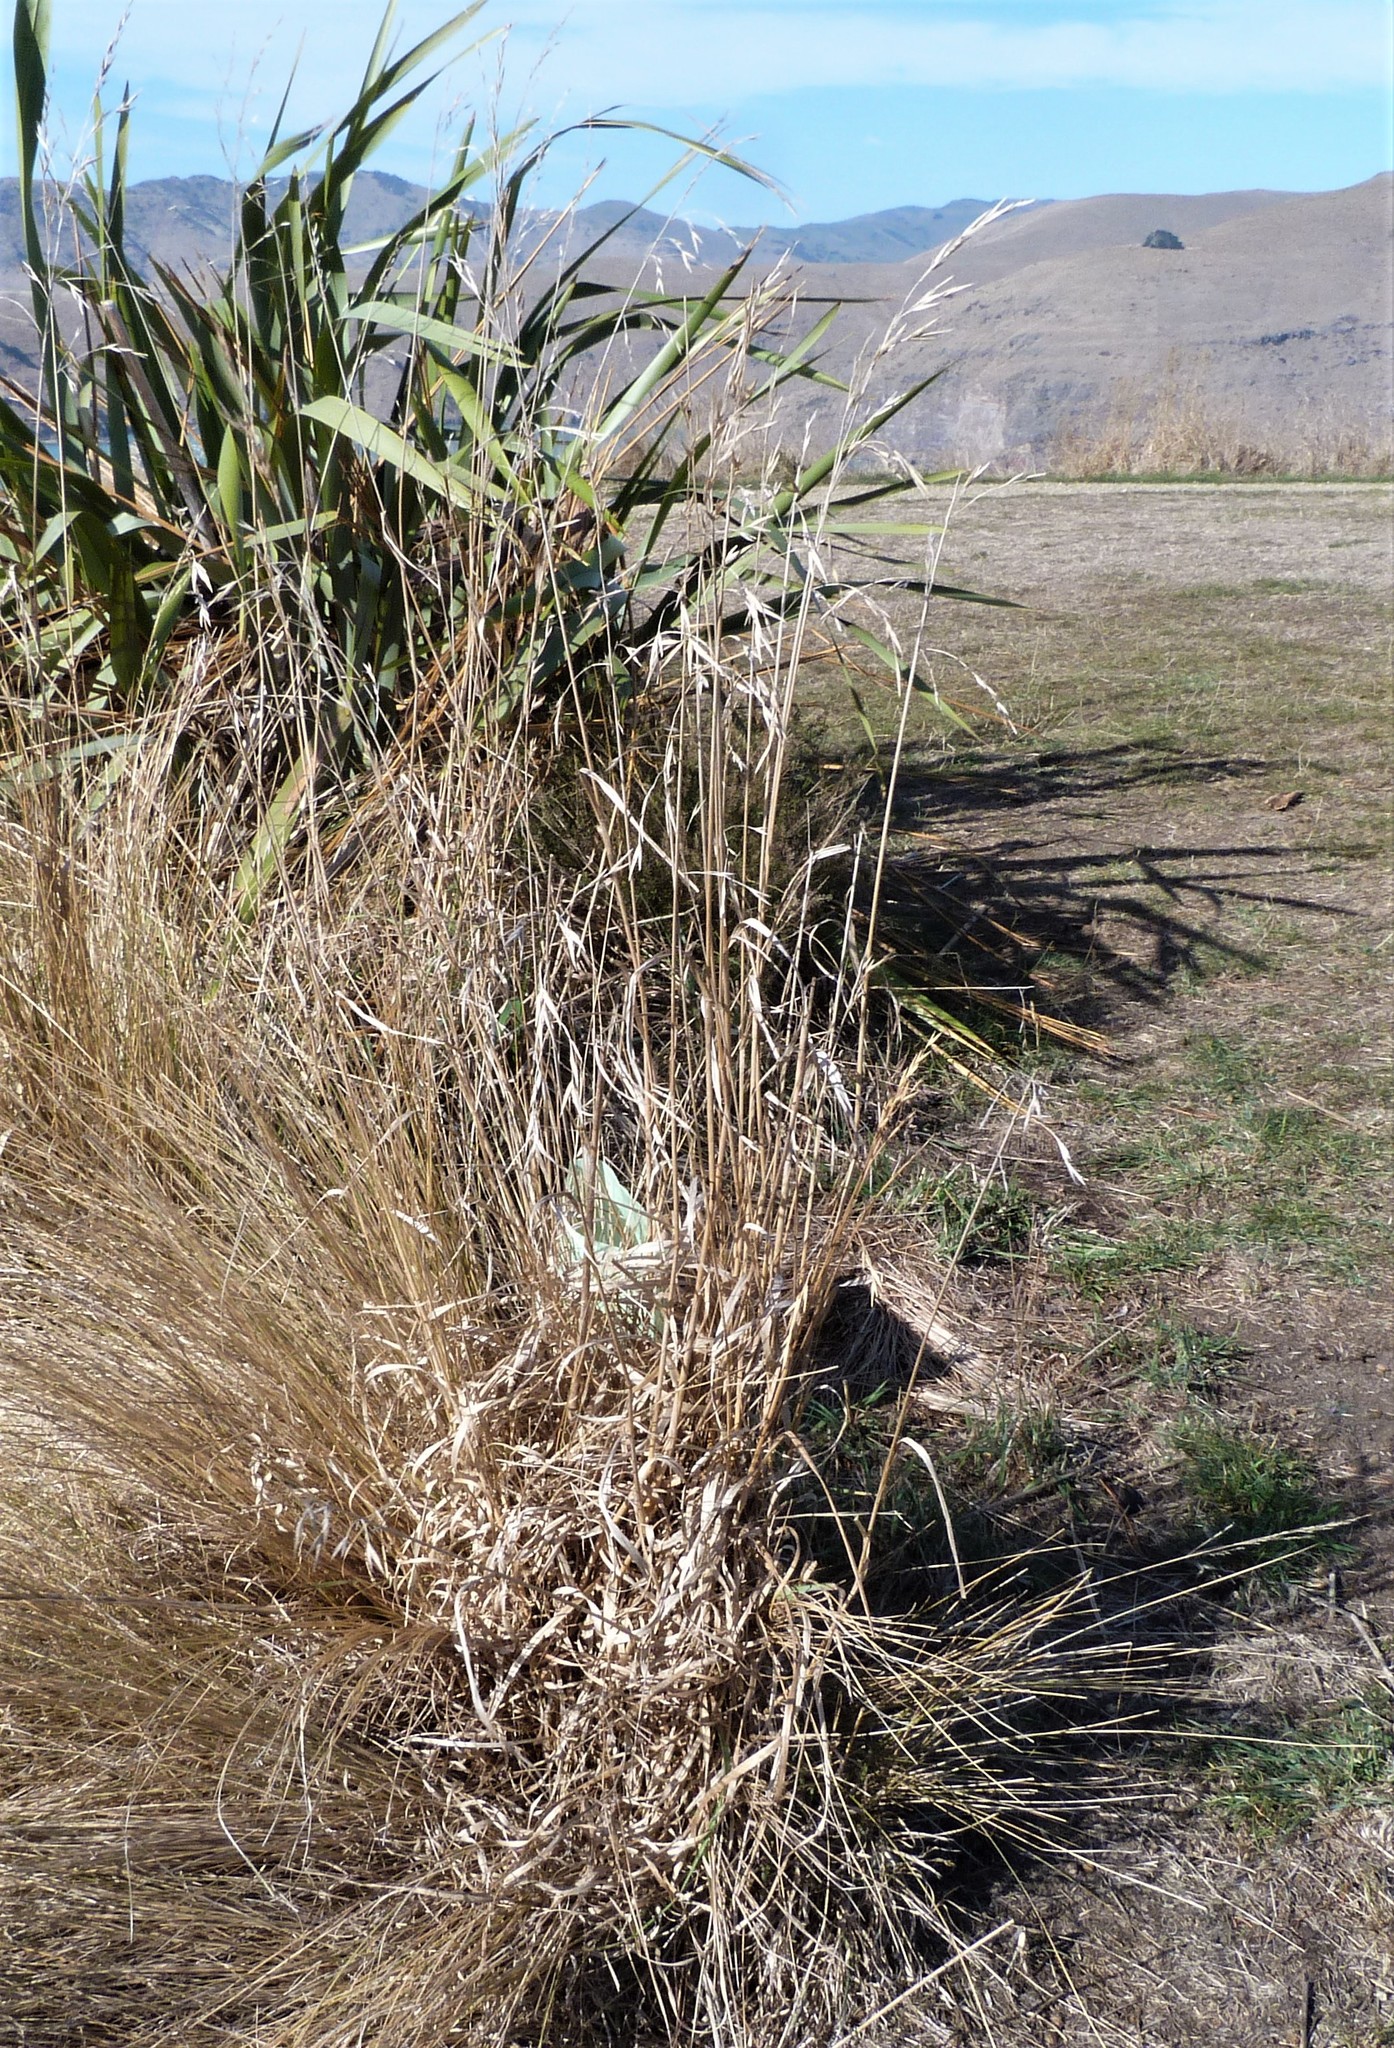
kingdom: Plantae
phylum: Tracheophyta
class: Liliopsida
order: Poales
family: Poaceae
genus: Bromus
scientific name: Bromus catharticus
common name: Rescuegrass
